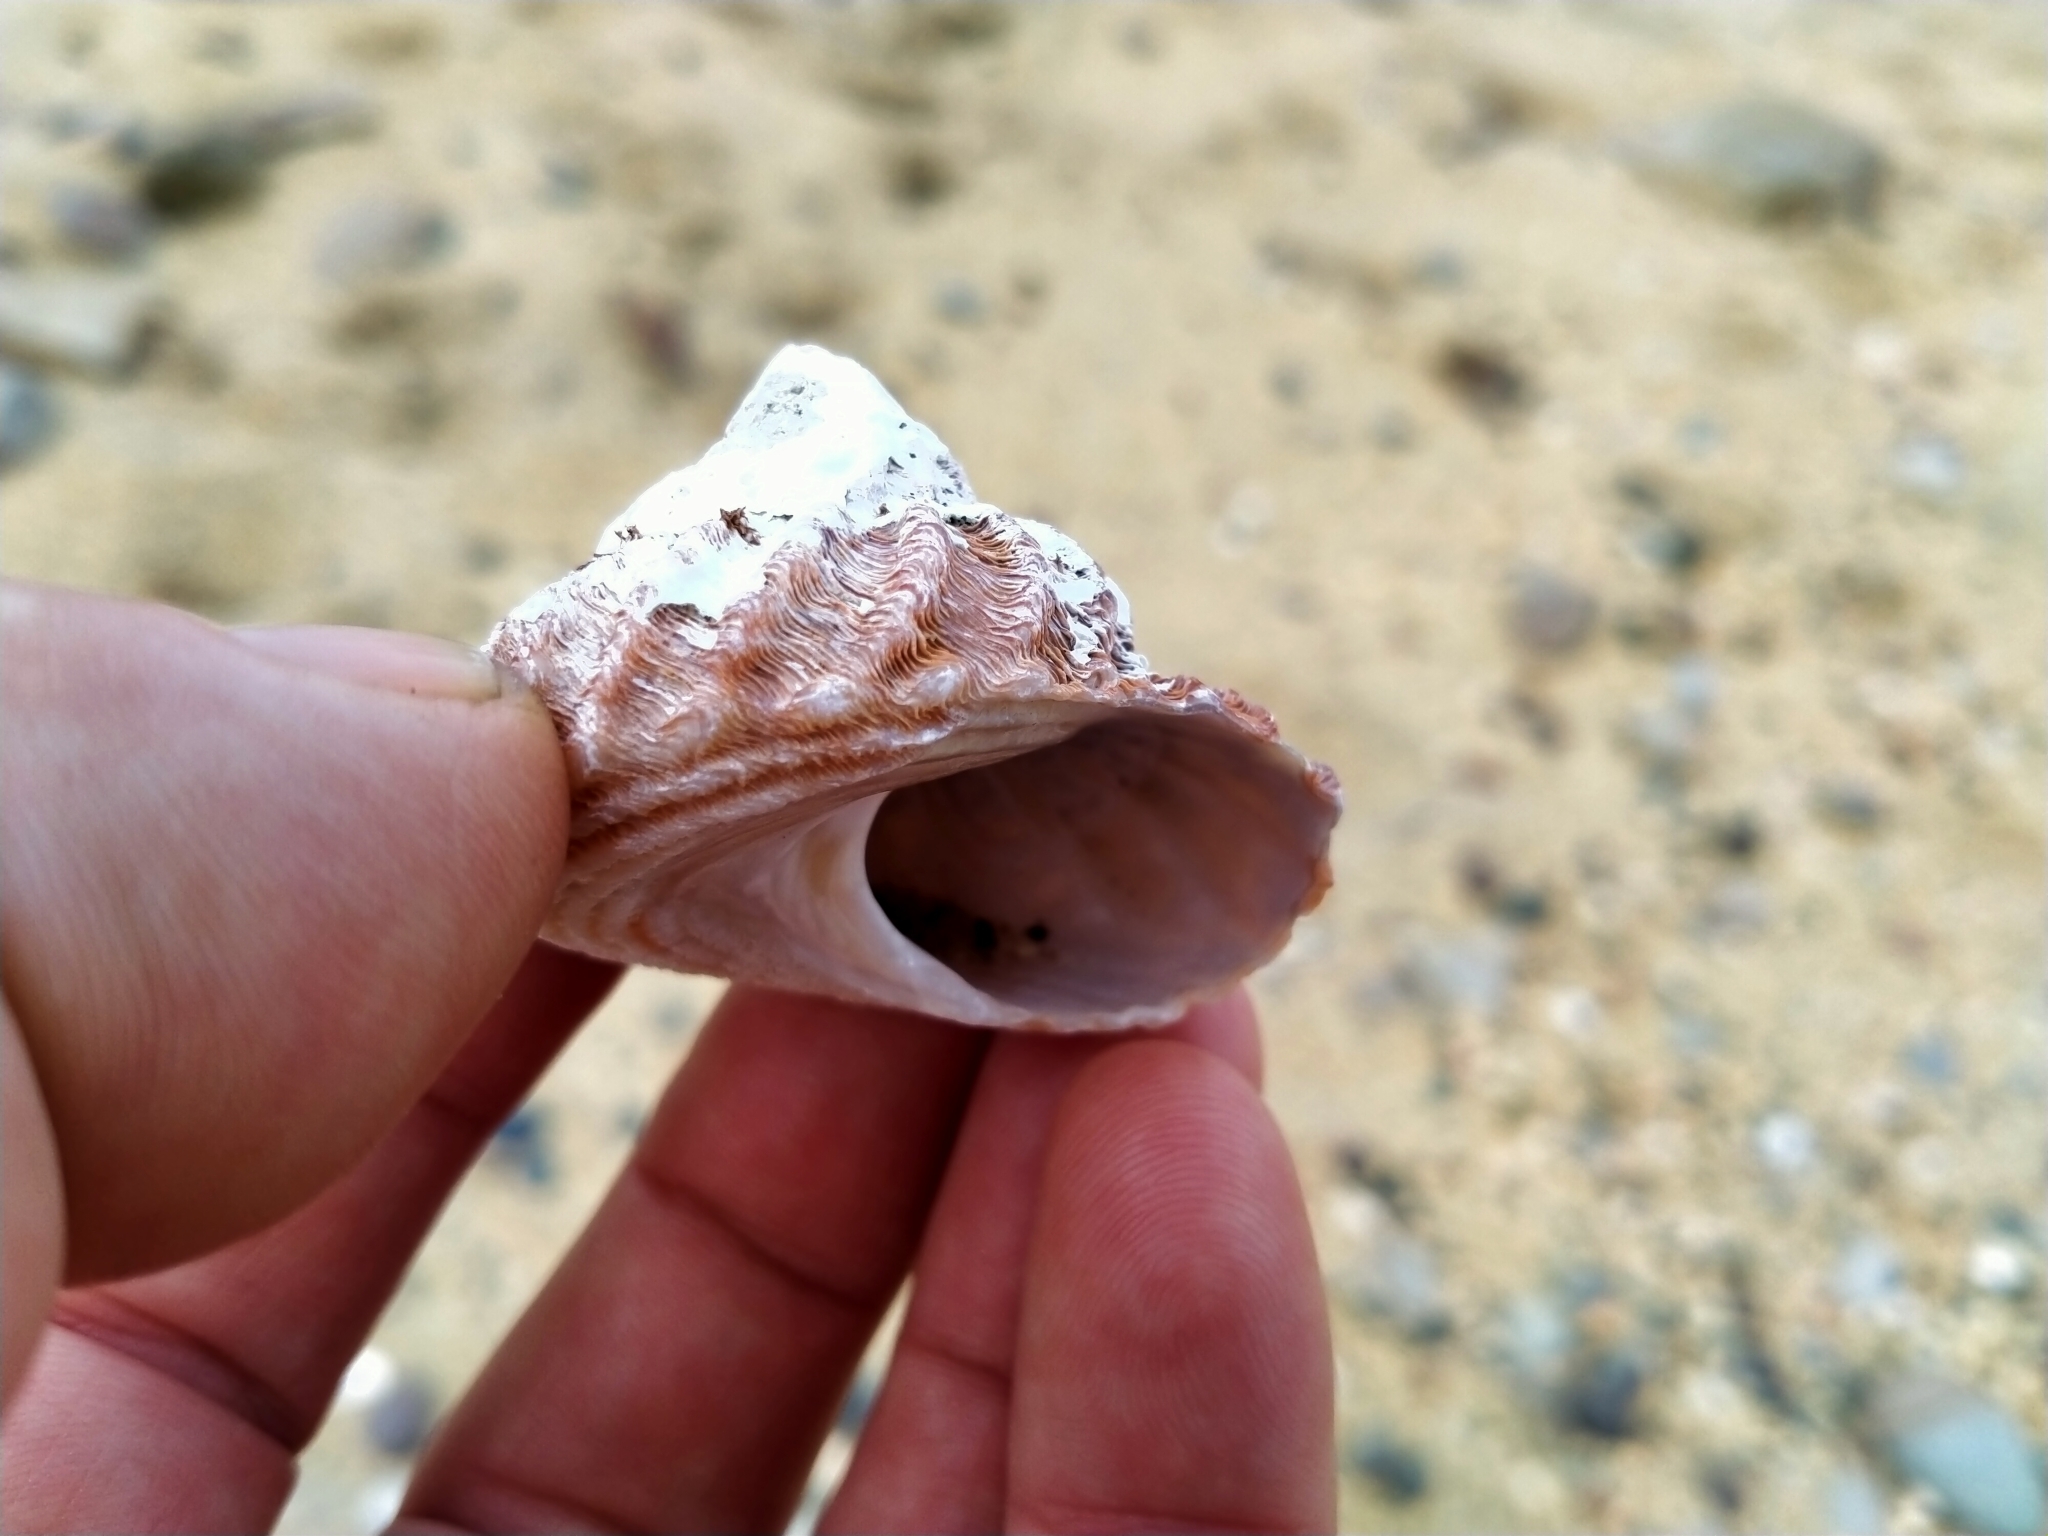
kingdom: Animalia
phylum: Mollusca
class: Gastropoda
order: Trochida
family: Turbinidae
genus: Cookia
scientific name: Cookia sulcata
